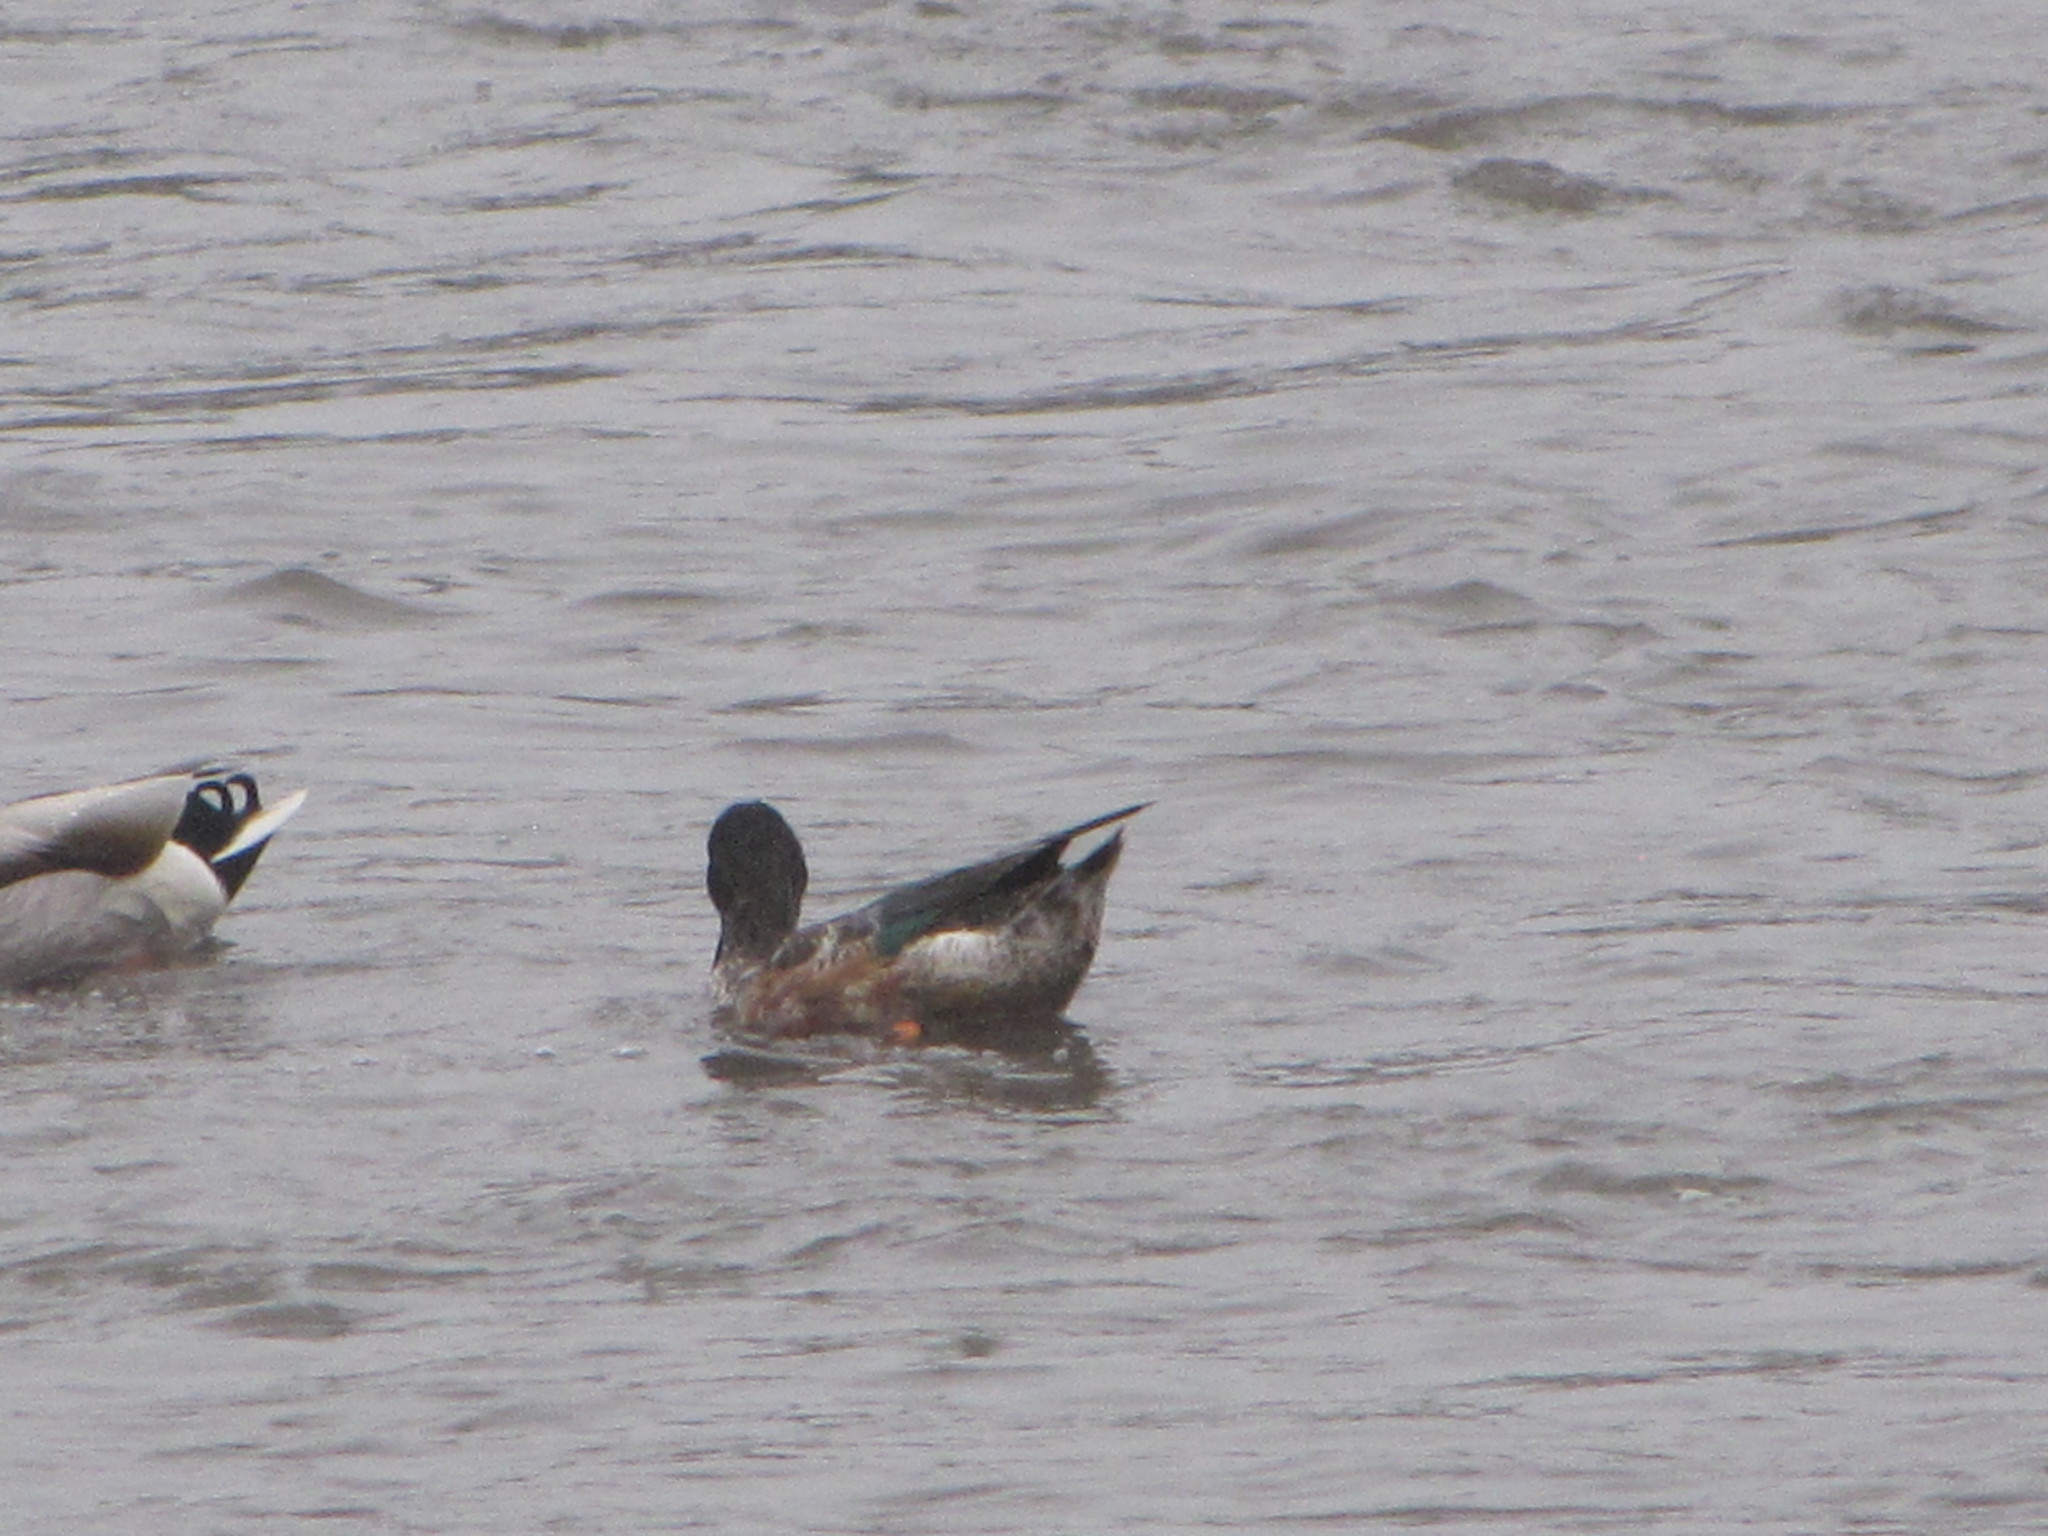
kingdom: Animalia
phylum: Chordata
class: Aves
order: Anseriformes
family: Anatidae
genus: Spatula
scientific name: Spatula clypeata
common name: Northern shoveler
